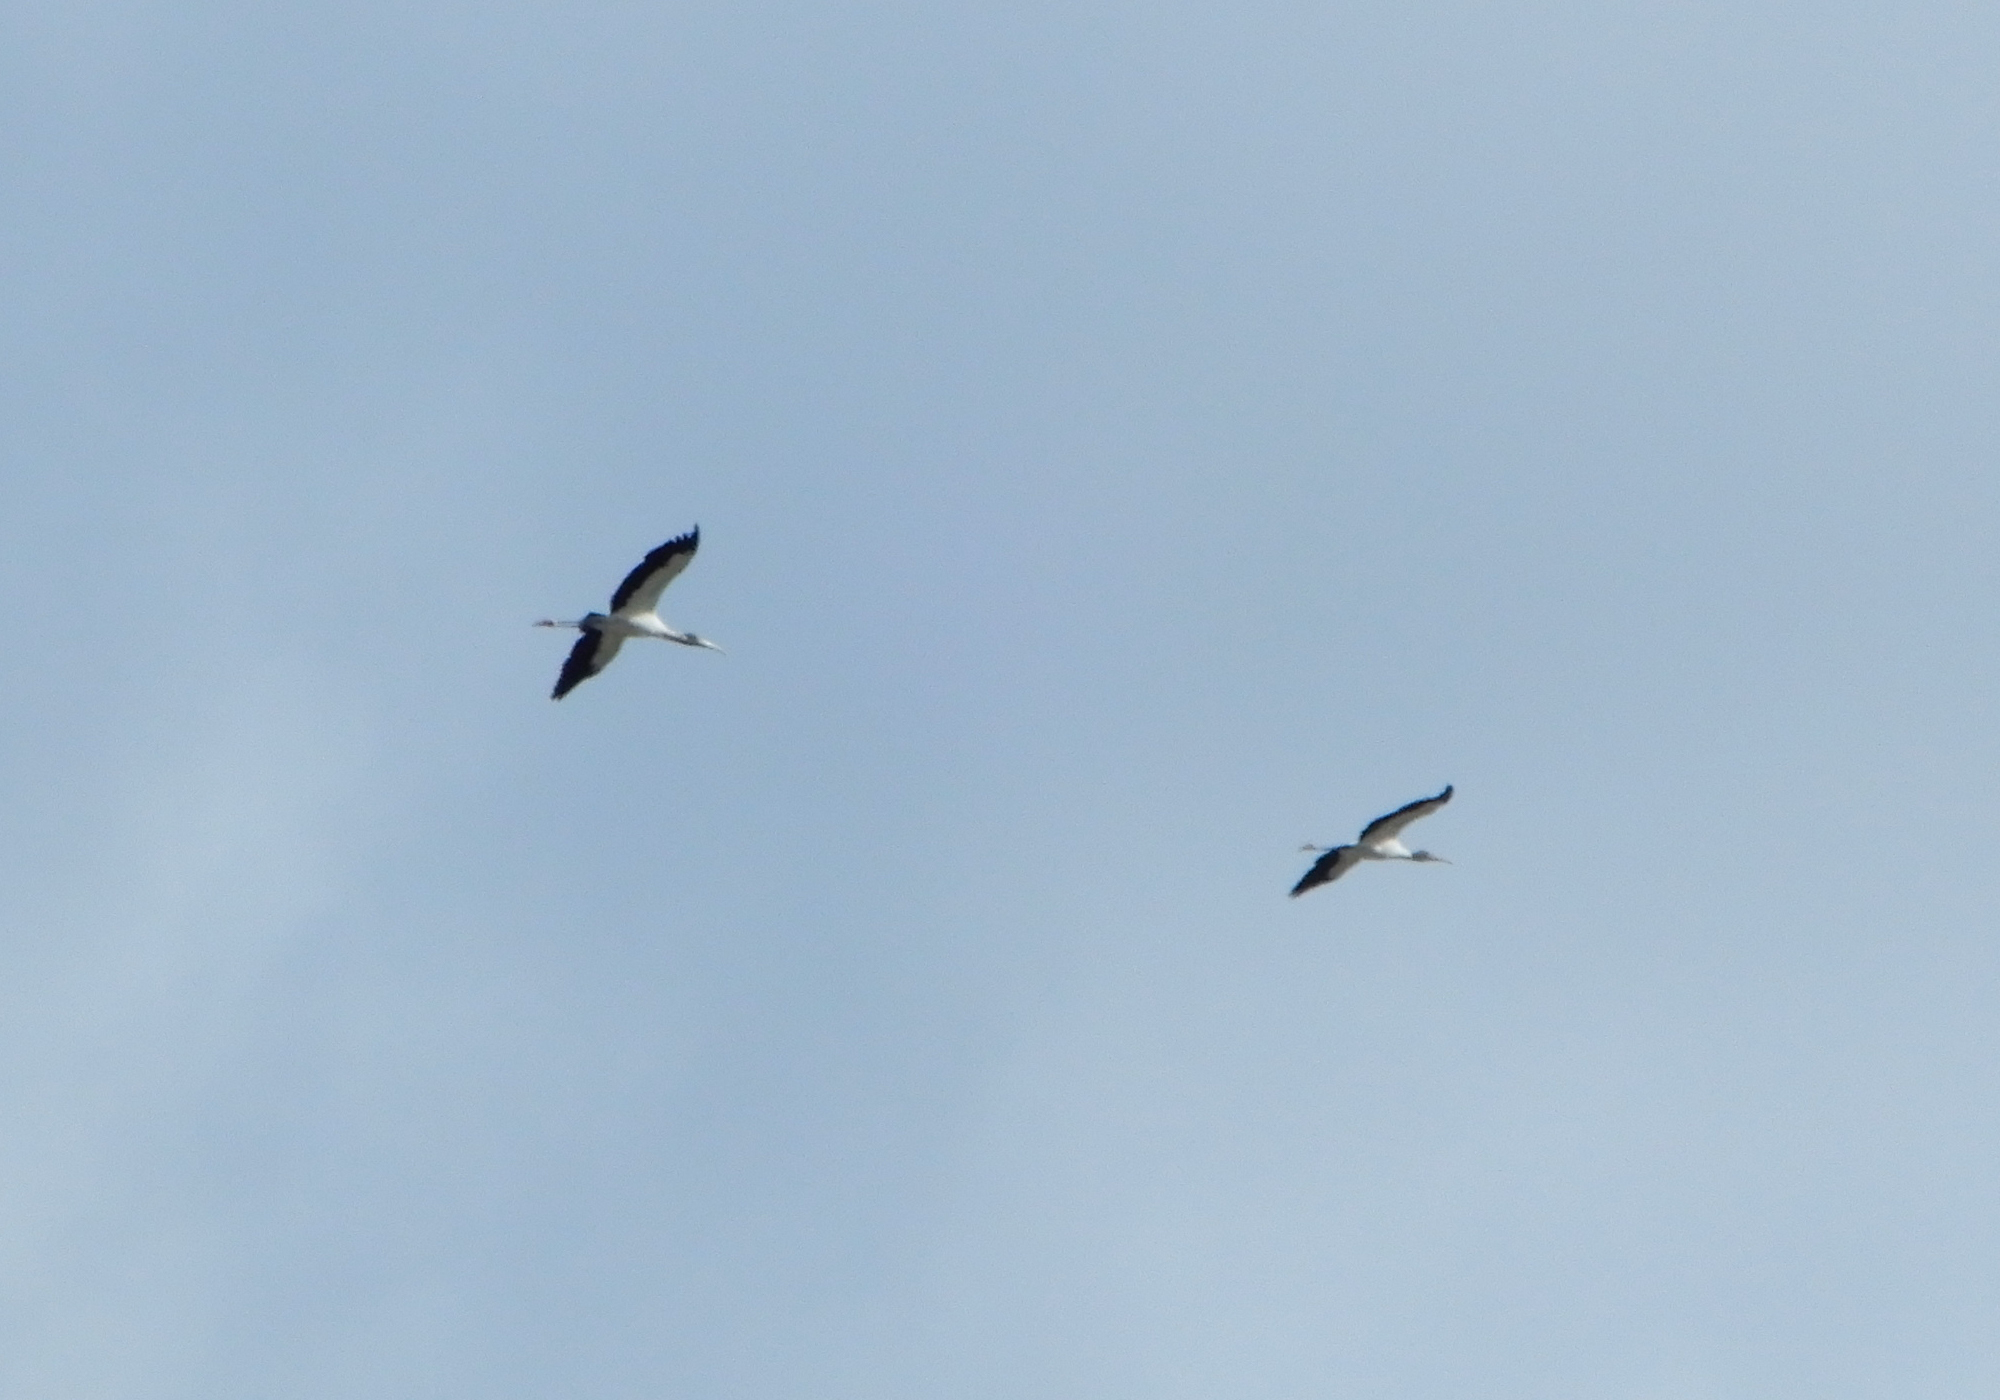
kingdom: Animalia
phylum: Chordata
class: Aves
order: Ciconiiformes
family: Ciconiidae
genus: Mycteria
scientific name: Mycteria americana
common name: Wood stork
